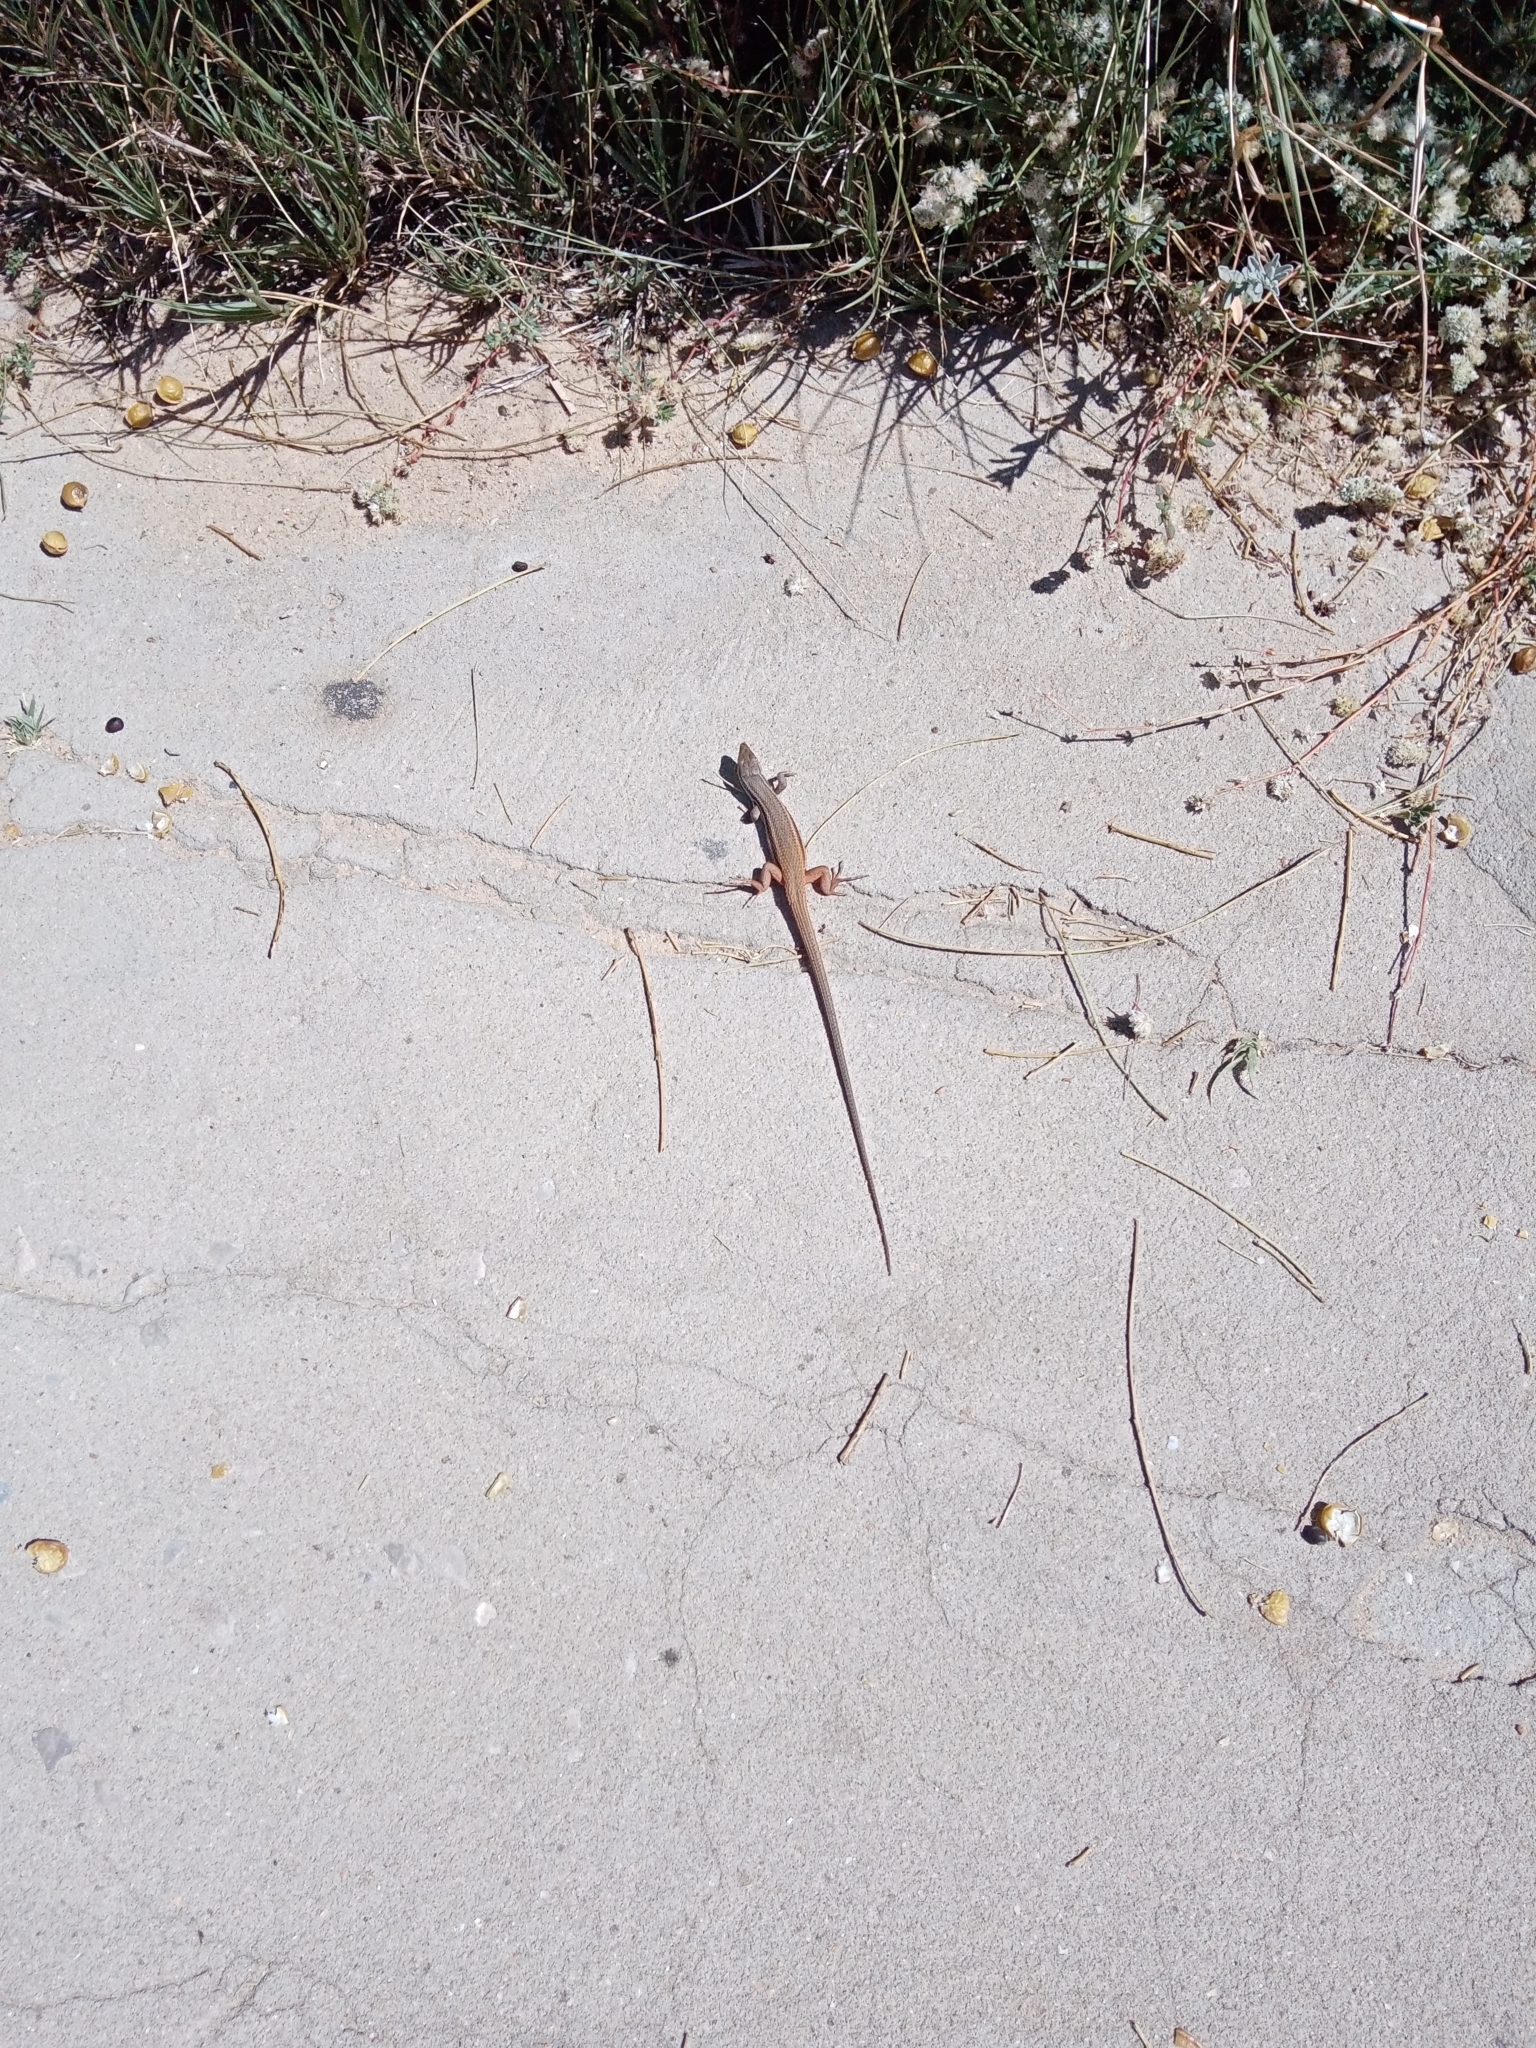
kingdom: Animalia
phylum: Chordata
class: Squamata
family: Lacertidae
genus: Psammodromus
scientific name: Psammodromus algirus
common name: Algerian psammodromus
